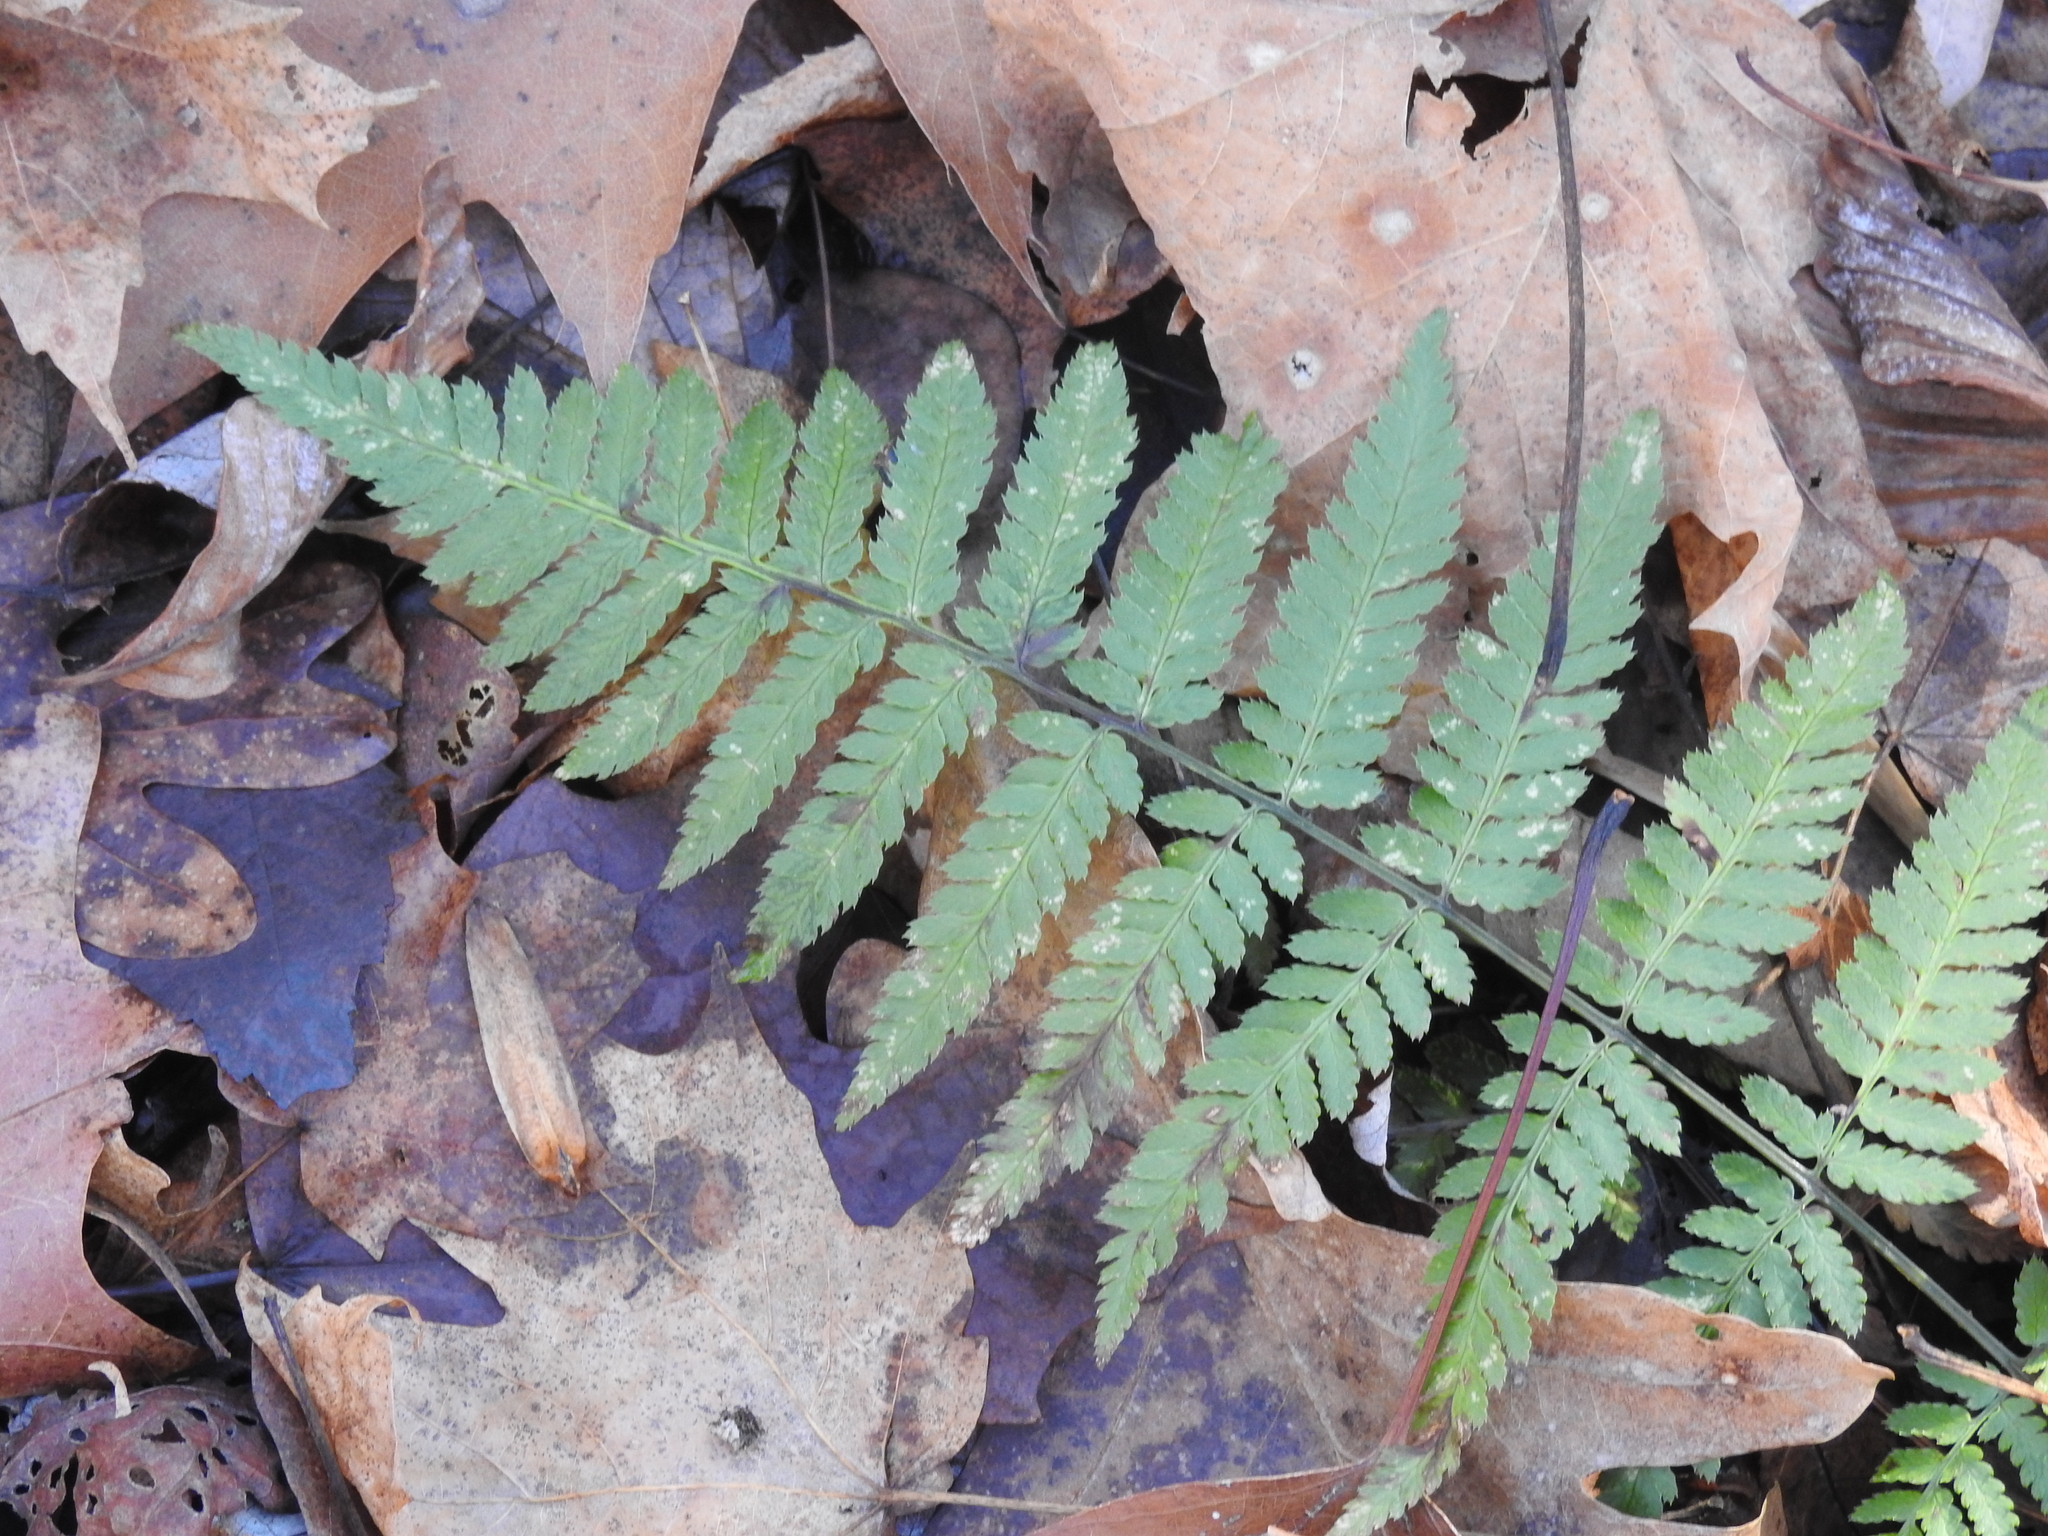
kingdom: Plantae
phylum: Tracheophyta
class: Polypodiopsida
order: Polypodiales
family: Dryopteridaceae
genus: Dryopteris
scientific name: Dryopteris carthusiana
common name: Narrow buckler-fern
